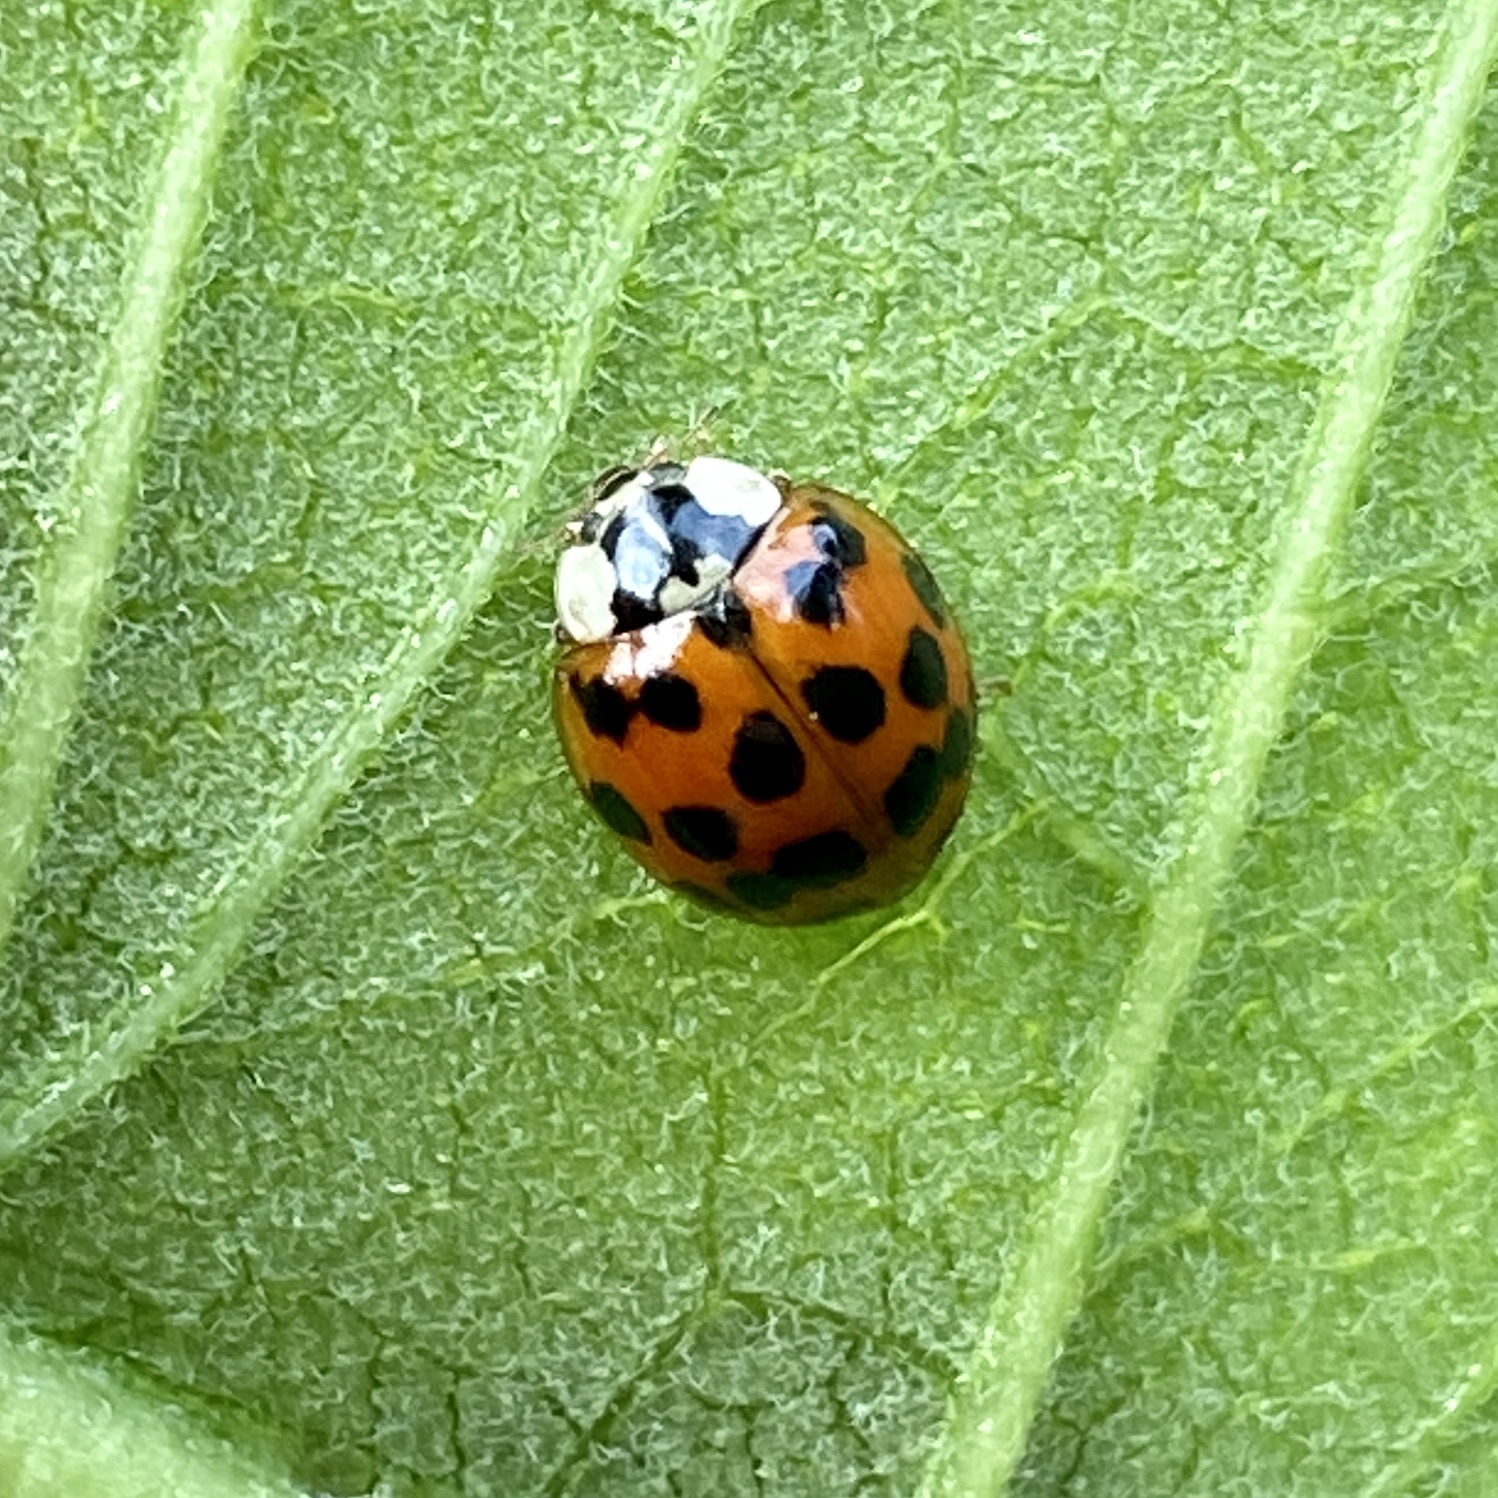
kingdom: Animalia
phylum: Arthropoda
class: Insecta
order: Coleoptera
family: Coccinellidae
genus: Harmonia
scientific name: Harmonia axyridis
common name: Harlequin ladybird
